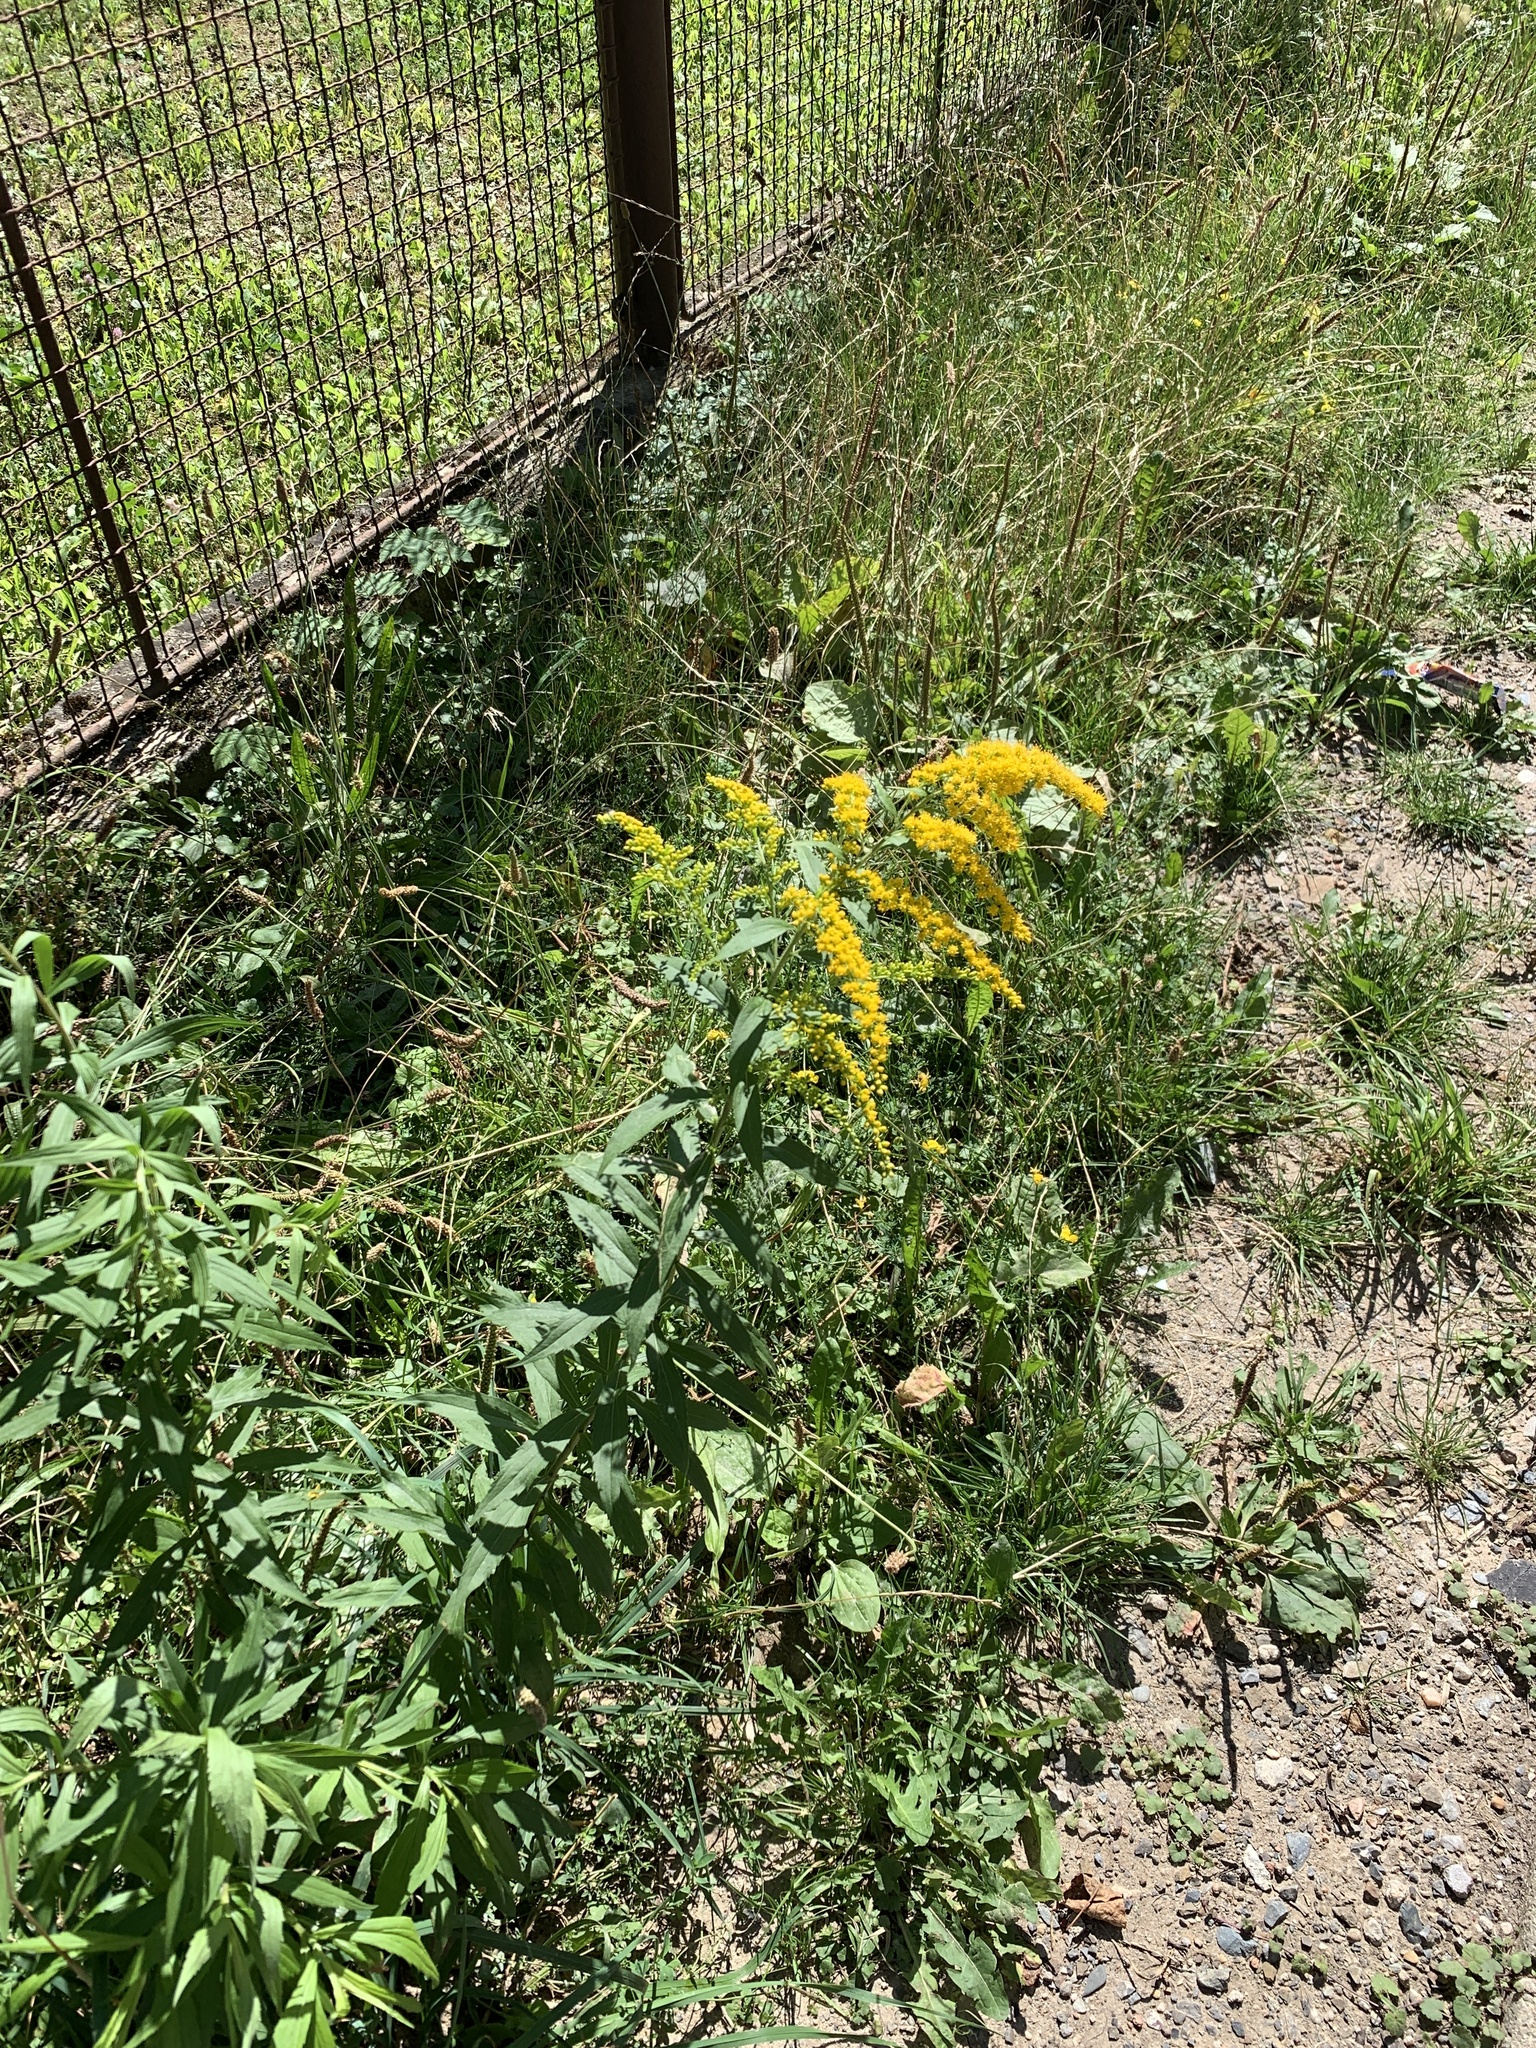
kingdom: Plantae
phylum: Tracheophyta
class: Magnoliopsida
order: Asterales
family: Asteraceae
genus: Solidago
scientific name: Solidago canadensis
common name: Canada goldenrod
